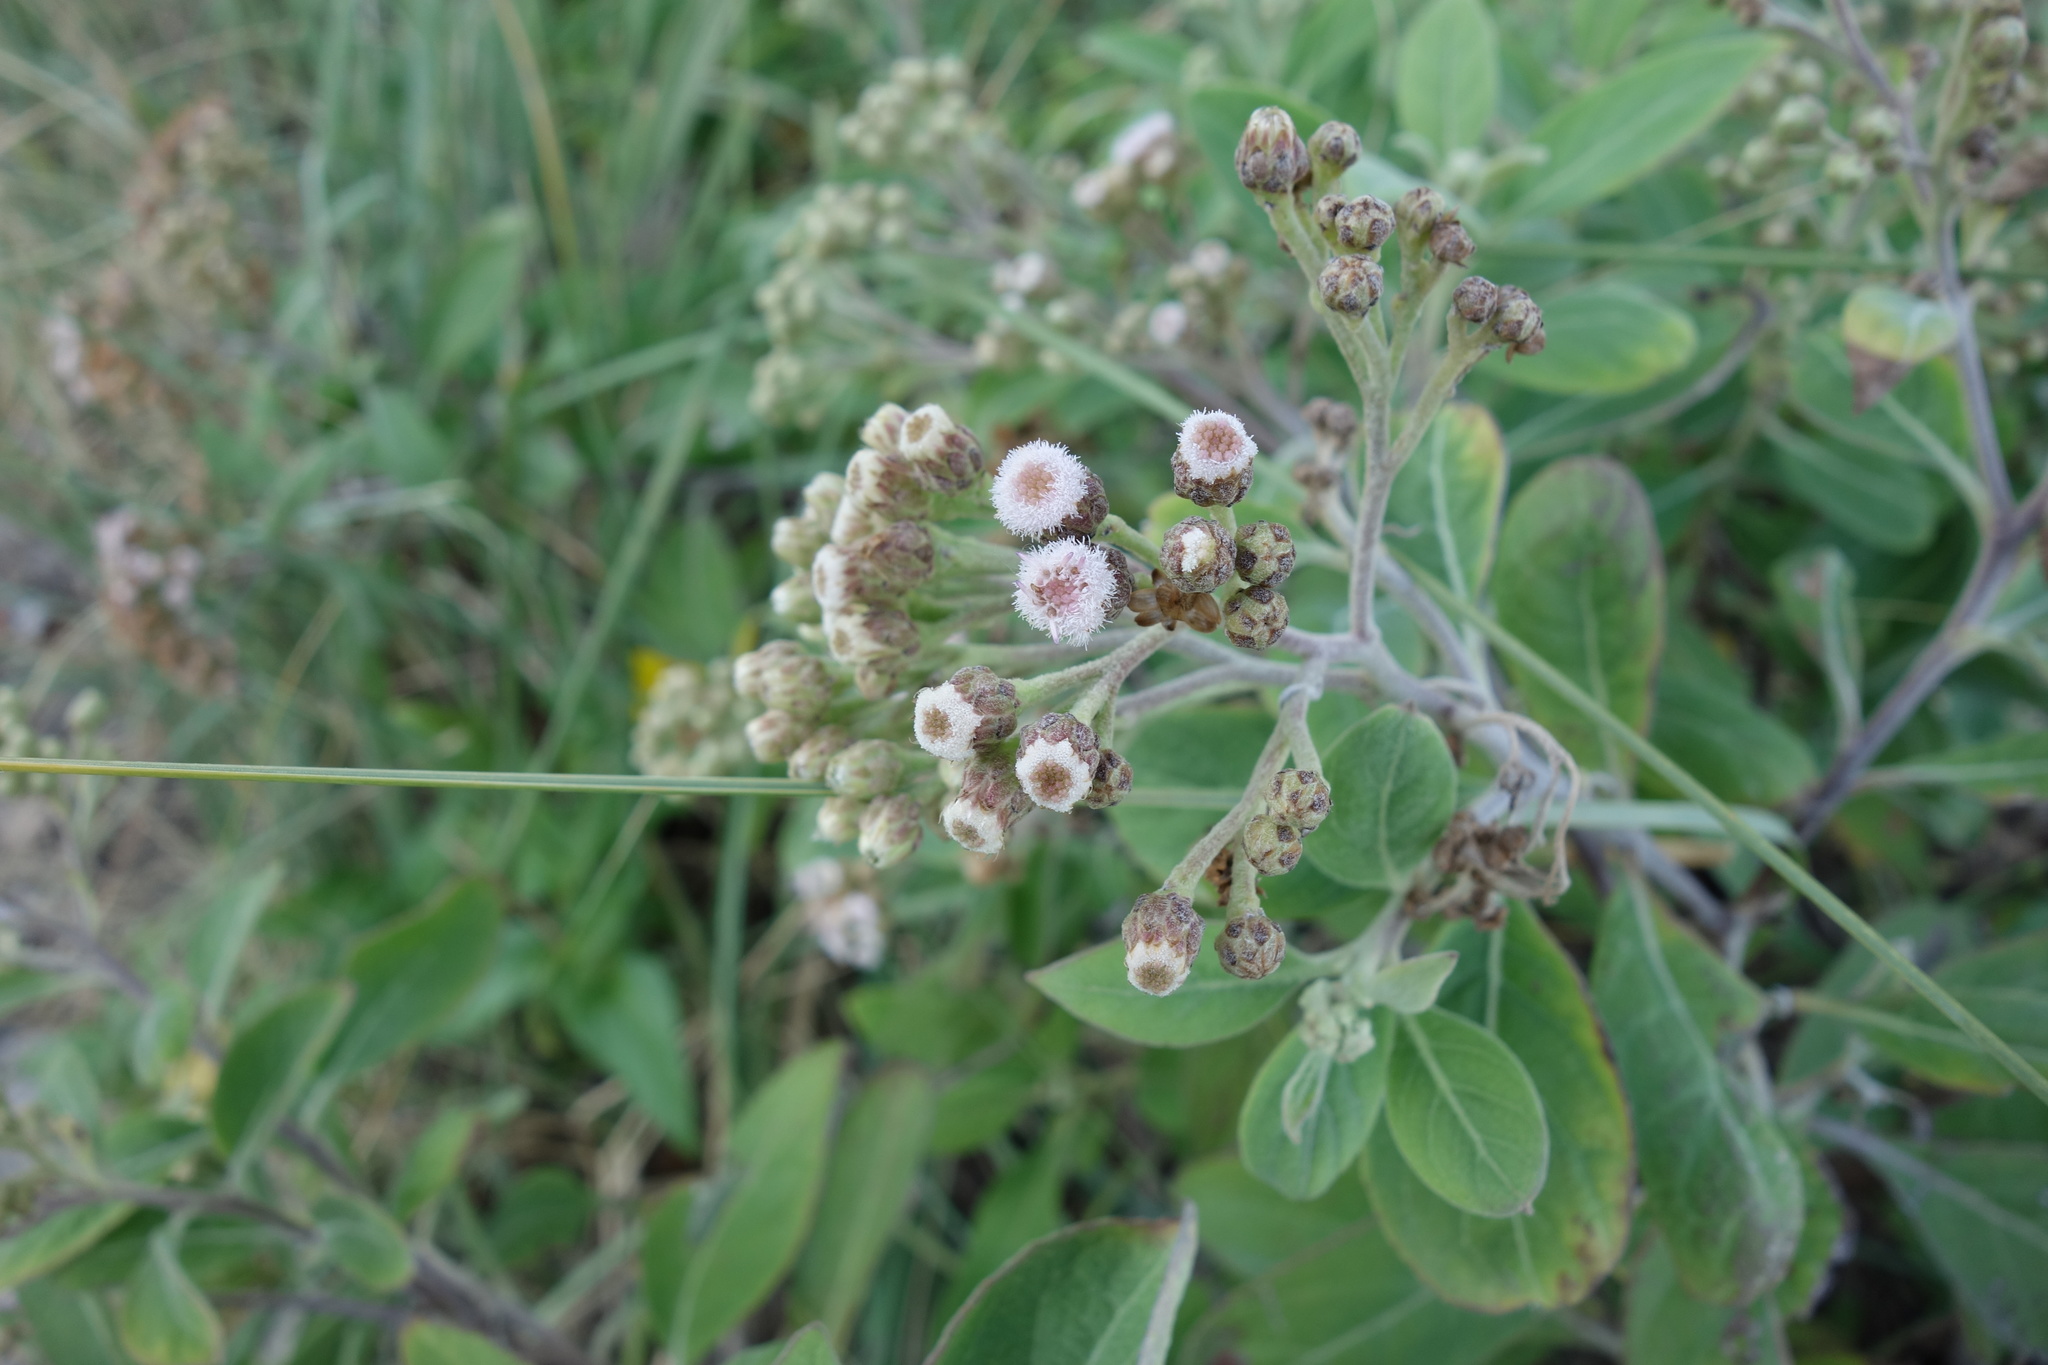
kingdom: Plantae
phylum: Tracheophyta
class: Magnoliopsida
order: Asterales
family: Asteraceae
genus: Pluchea
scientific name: Pluchea carolinensis
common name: Marsh fleabane
